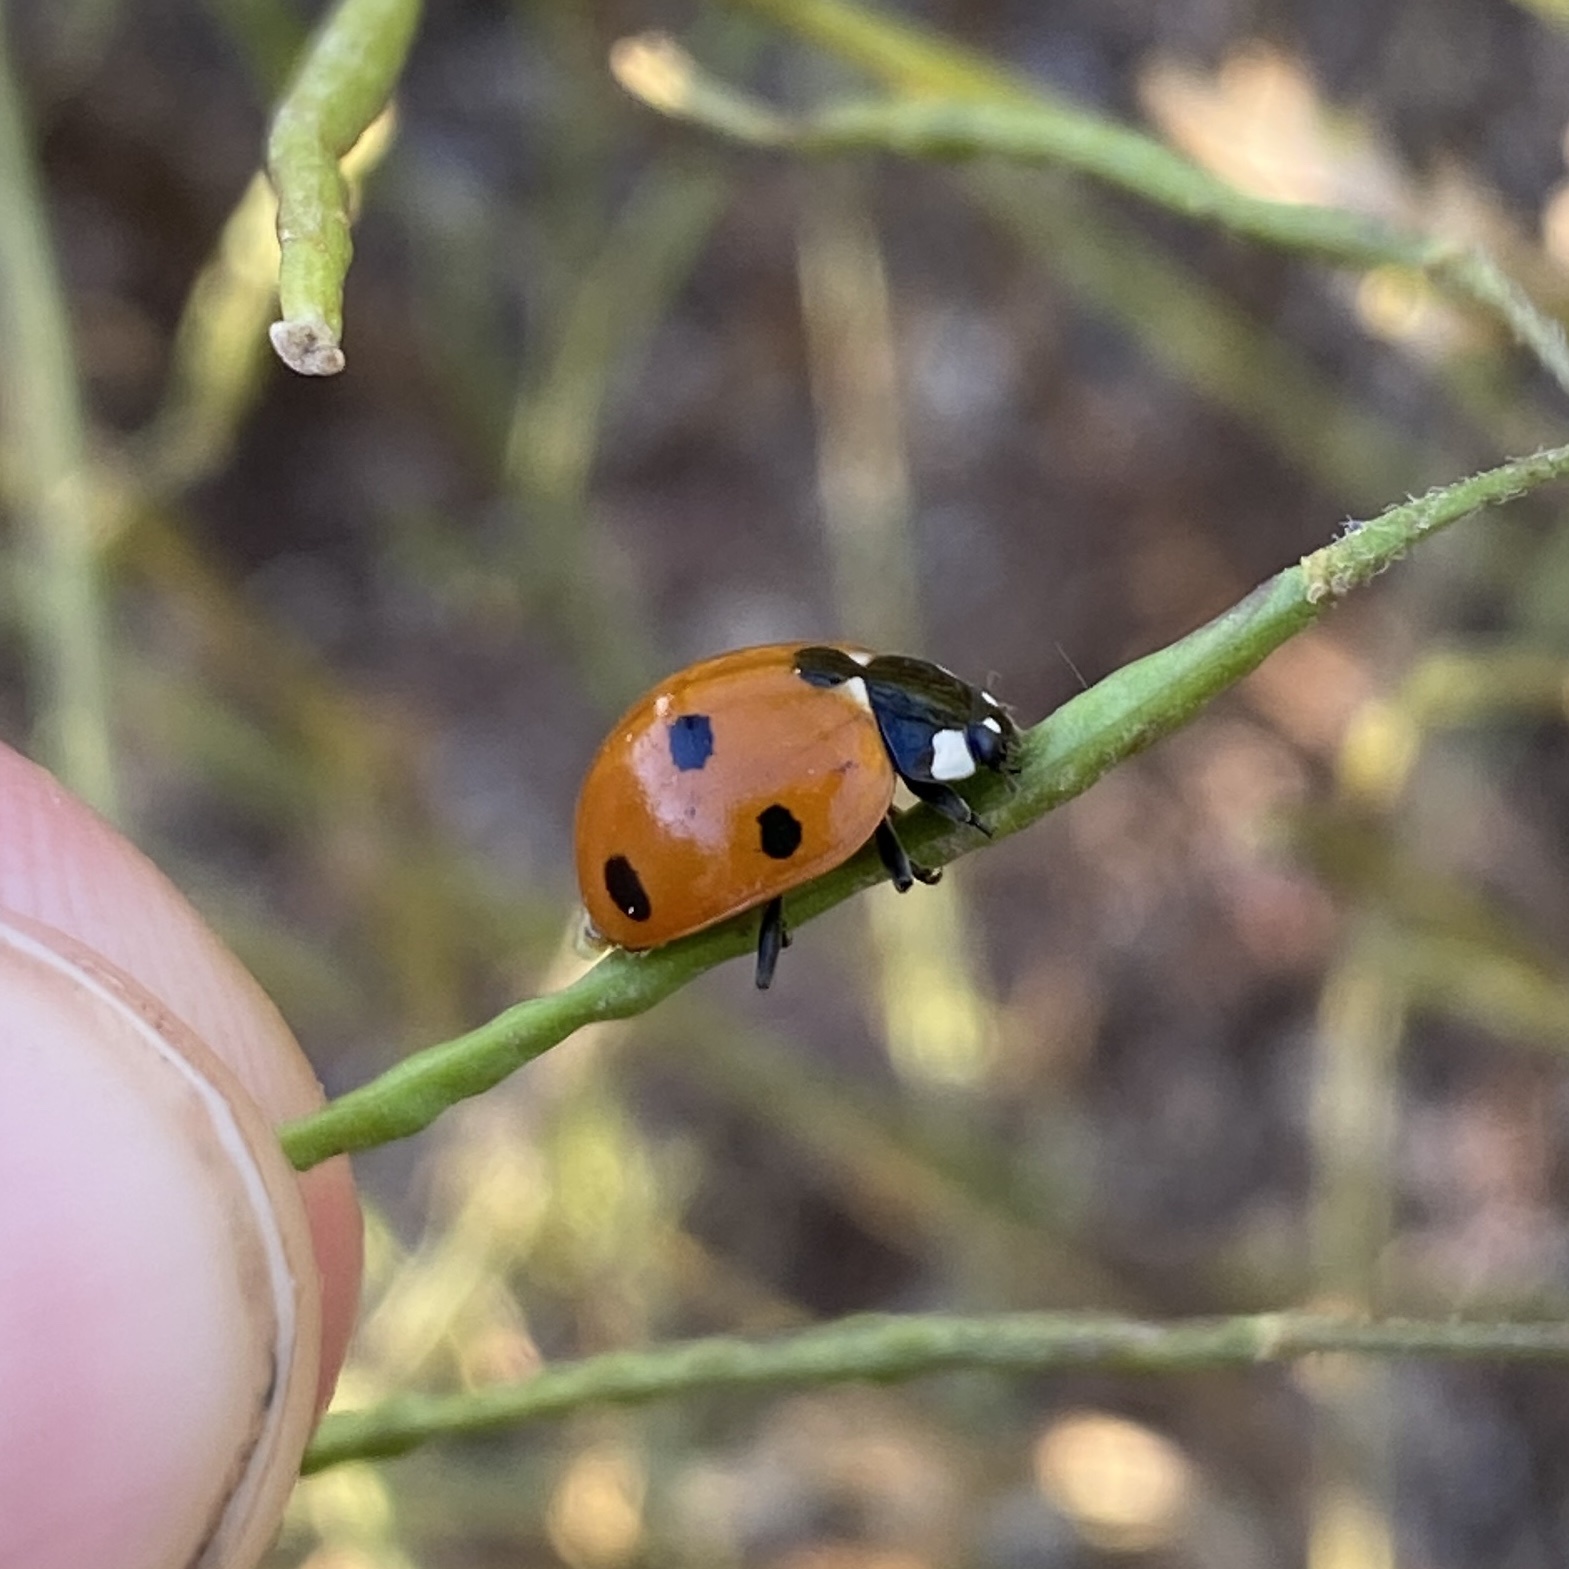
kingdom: Animalia
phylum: Arthropoda
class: Insecta
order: Coleoptera
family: Coccinellidae
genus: Coccinella
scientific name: Coccinella septempunctata
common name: Sevenspotted lady beetle
